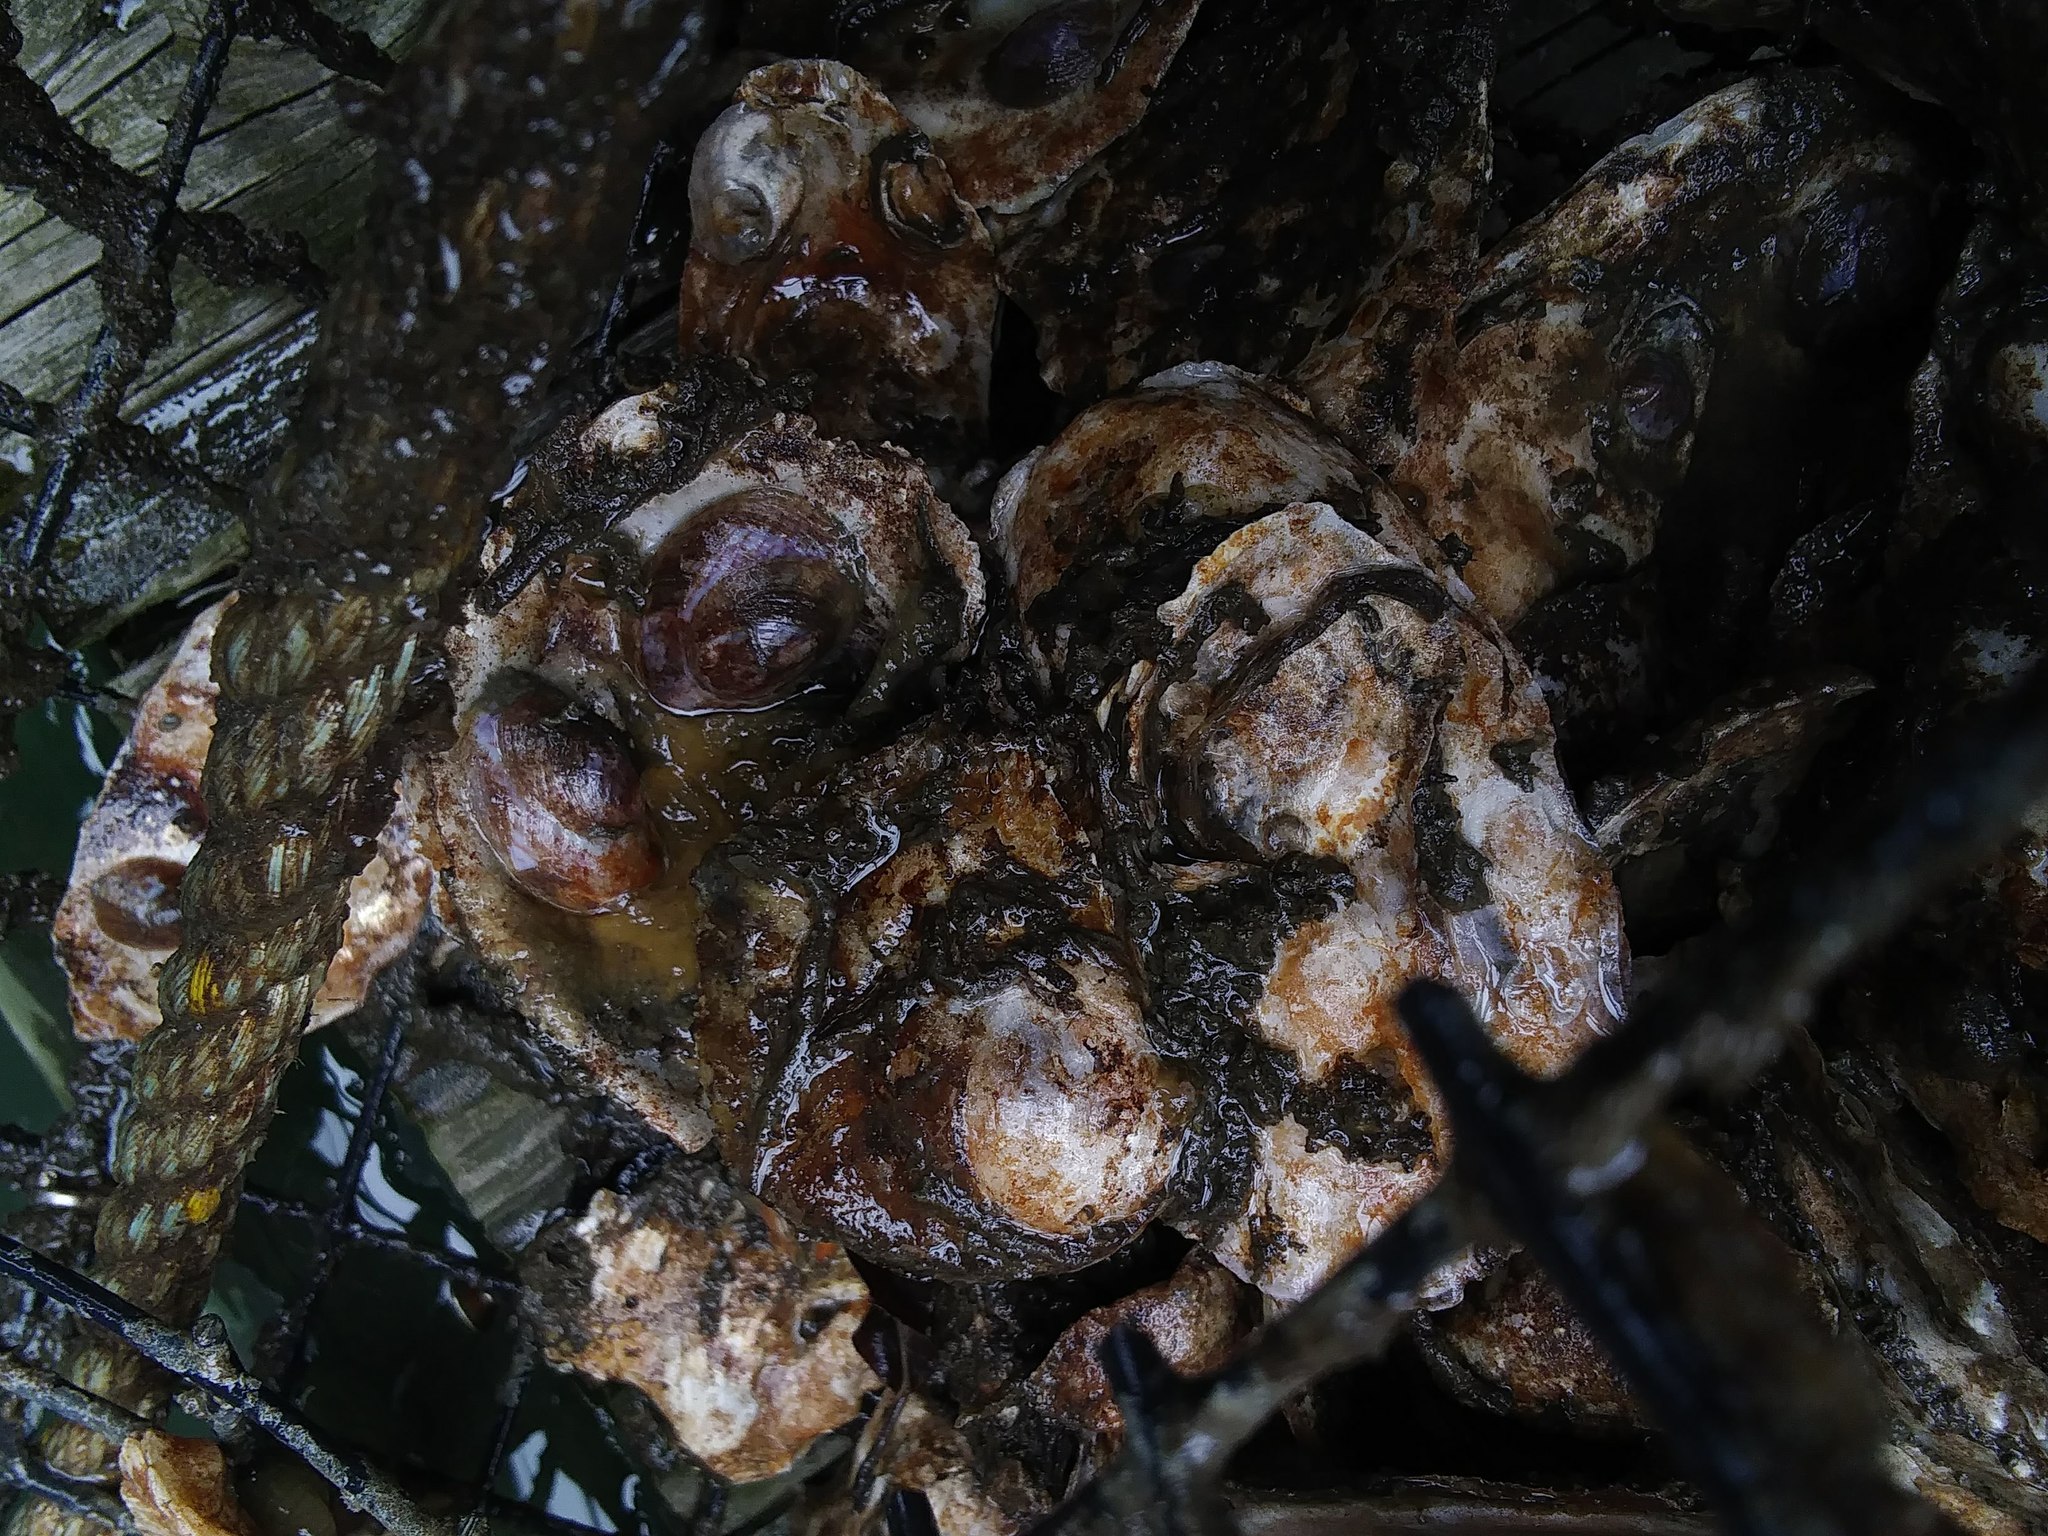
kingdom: Animalia
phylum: Mollusca
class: Gastropoda
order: Littorinimorpha
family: Calyptraeidae
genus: Crepidula
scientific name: Crepidula fornicata
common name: Slipper limpet
